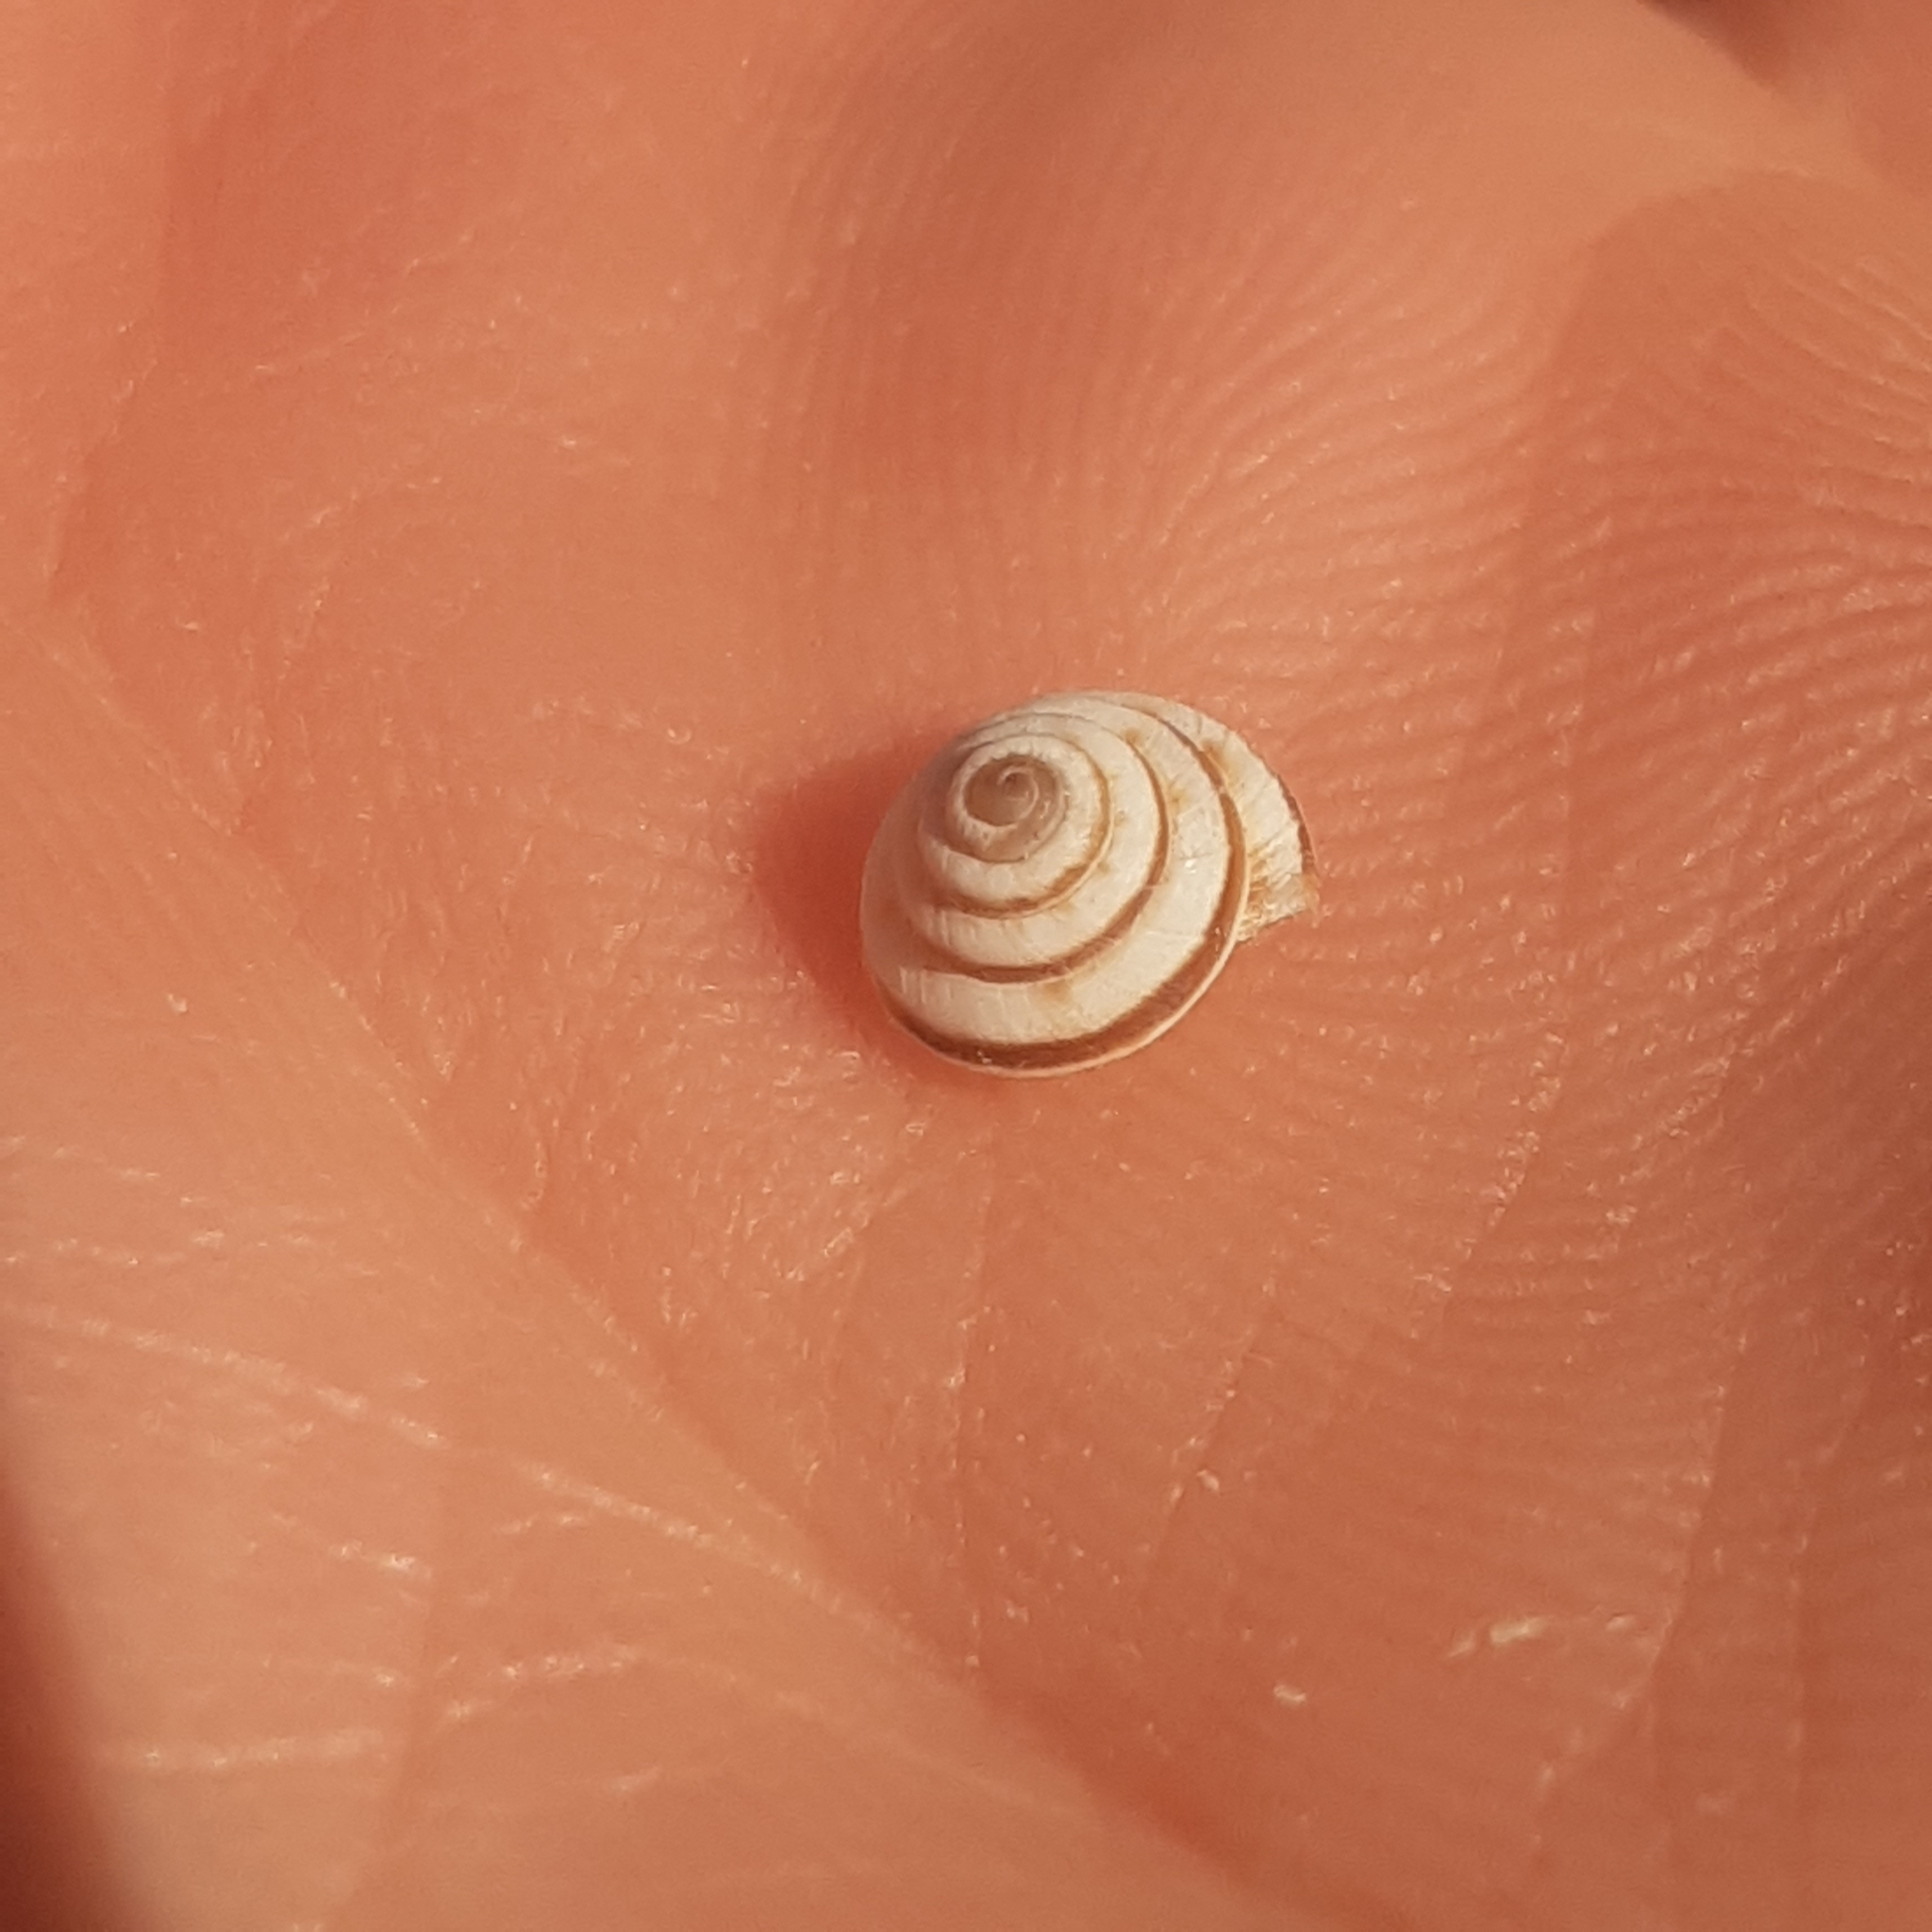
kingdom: Animalia
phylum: Mollusca
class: Gastropoda
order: Stylommatophora
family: Geomitridae
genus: Trochoidea
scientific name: Trochoidea trochoides
